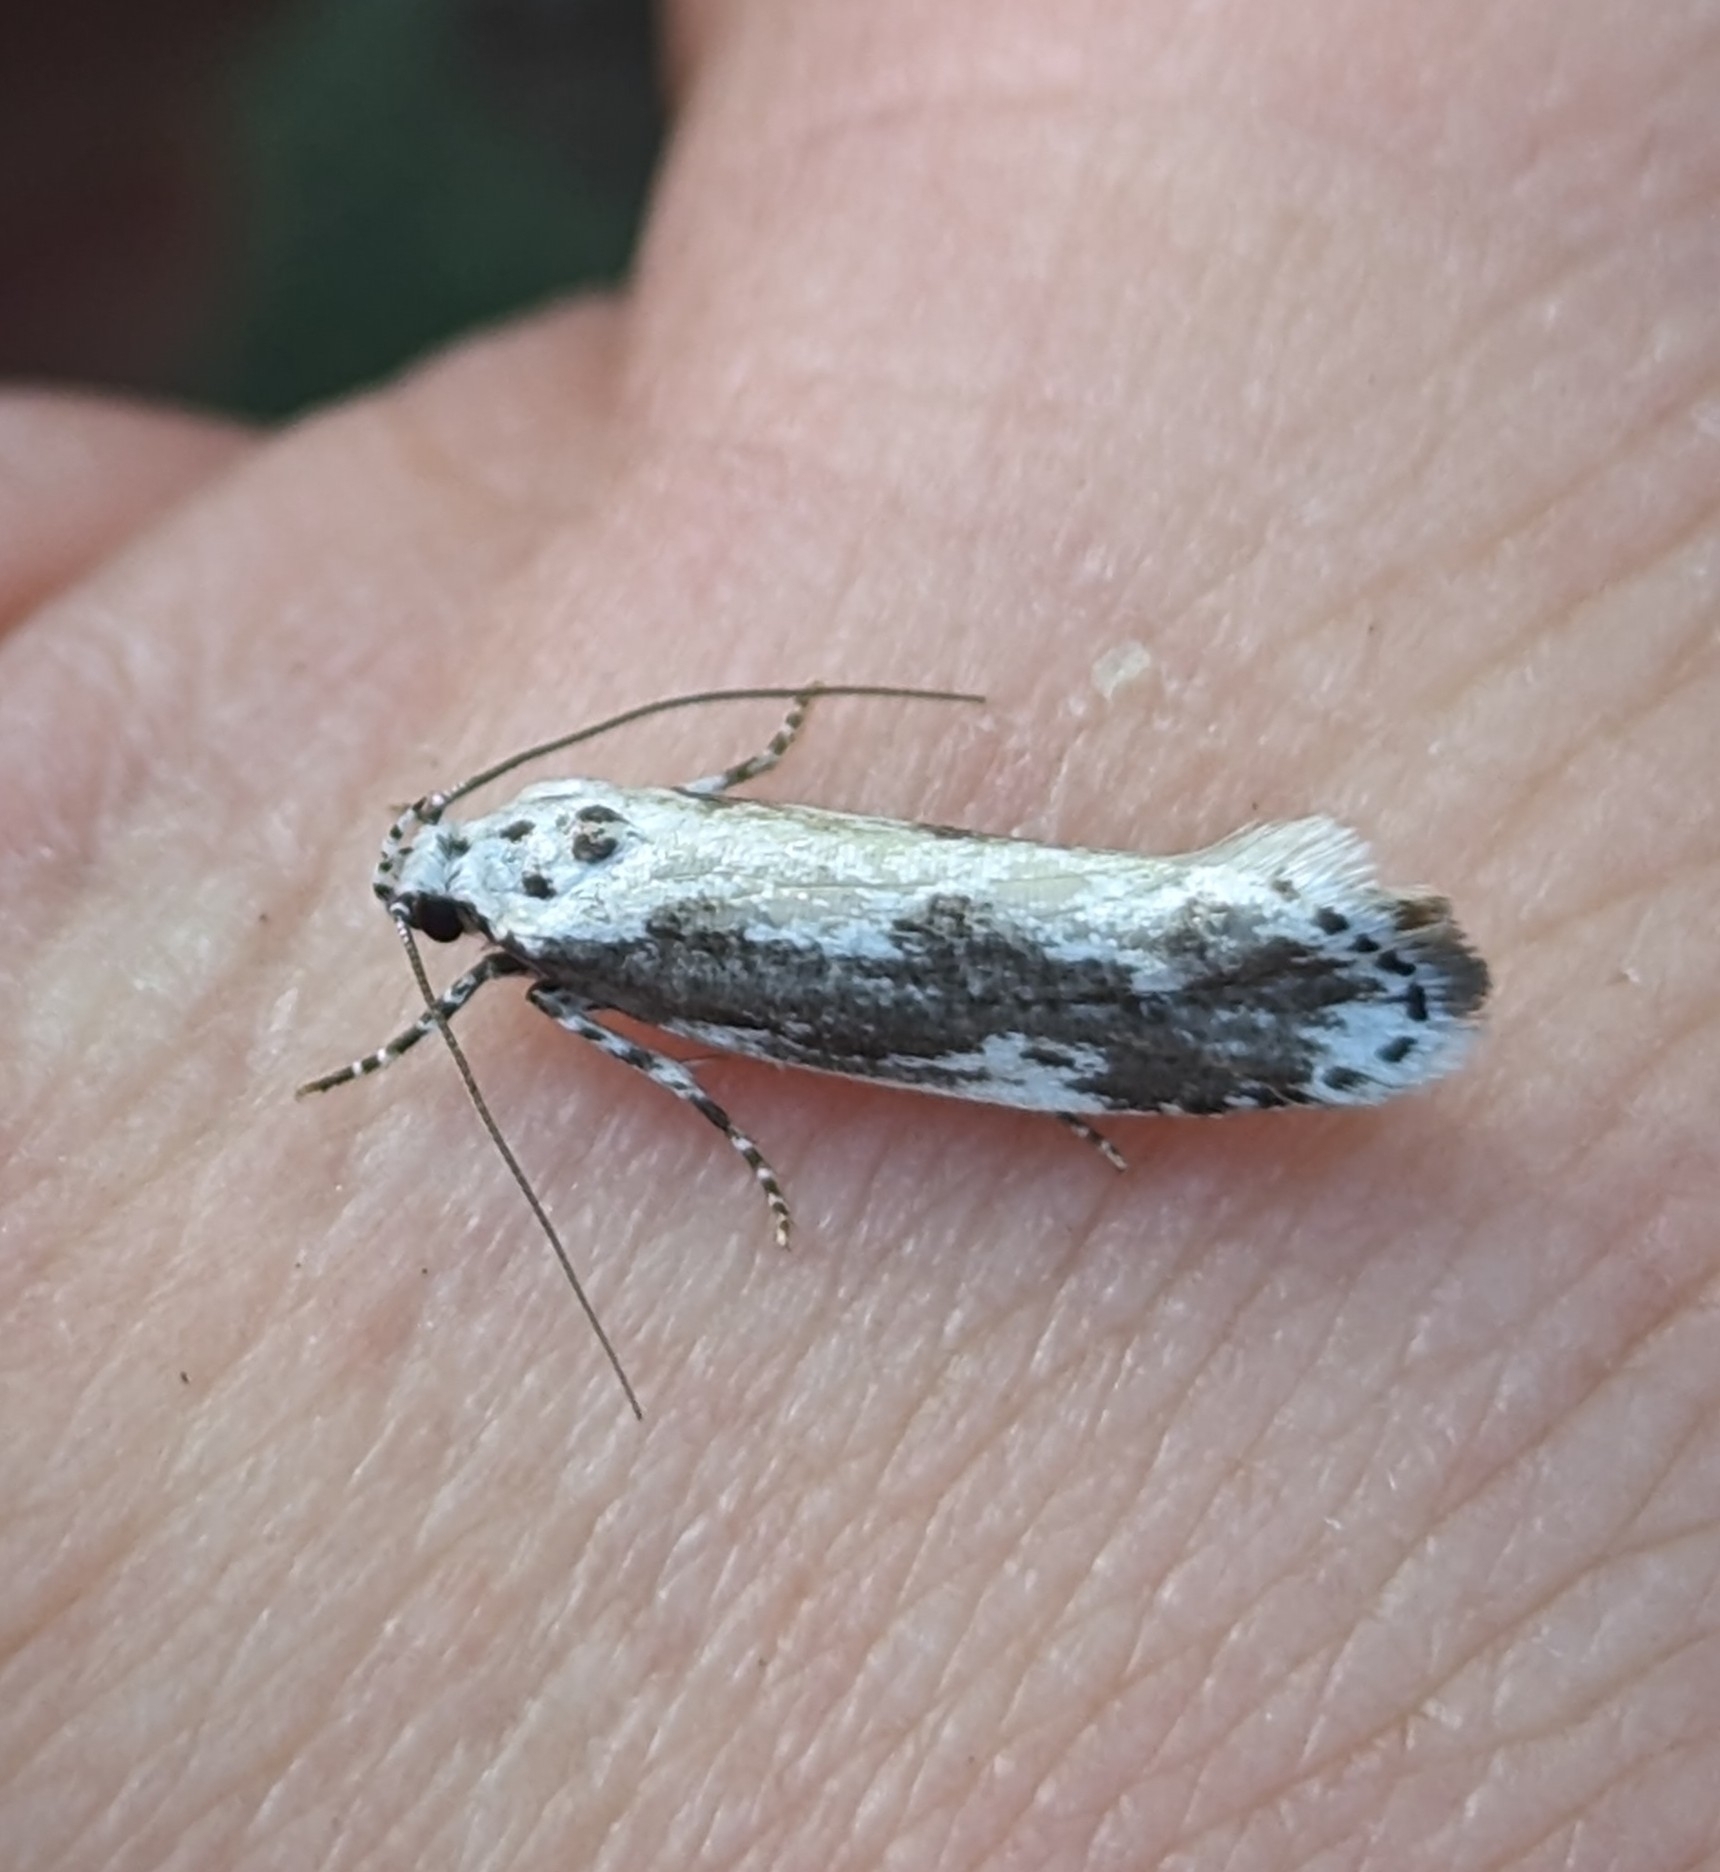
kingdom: Animalia
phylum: Arthropoda
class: Insecta
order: Lepidoptera
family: Ethmiidae
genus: Ethmia
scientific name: Ethmia marmorea
